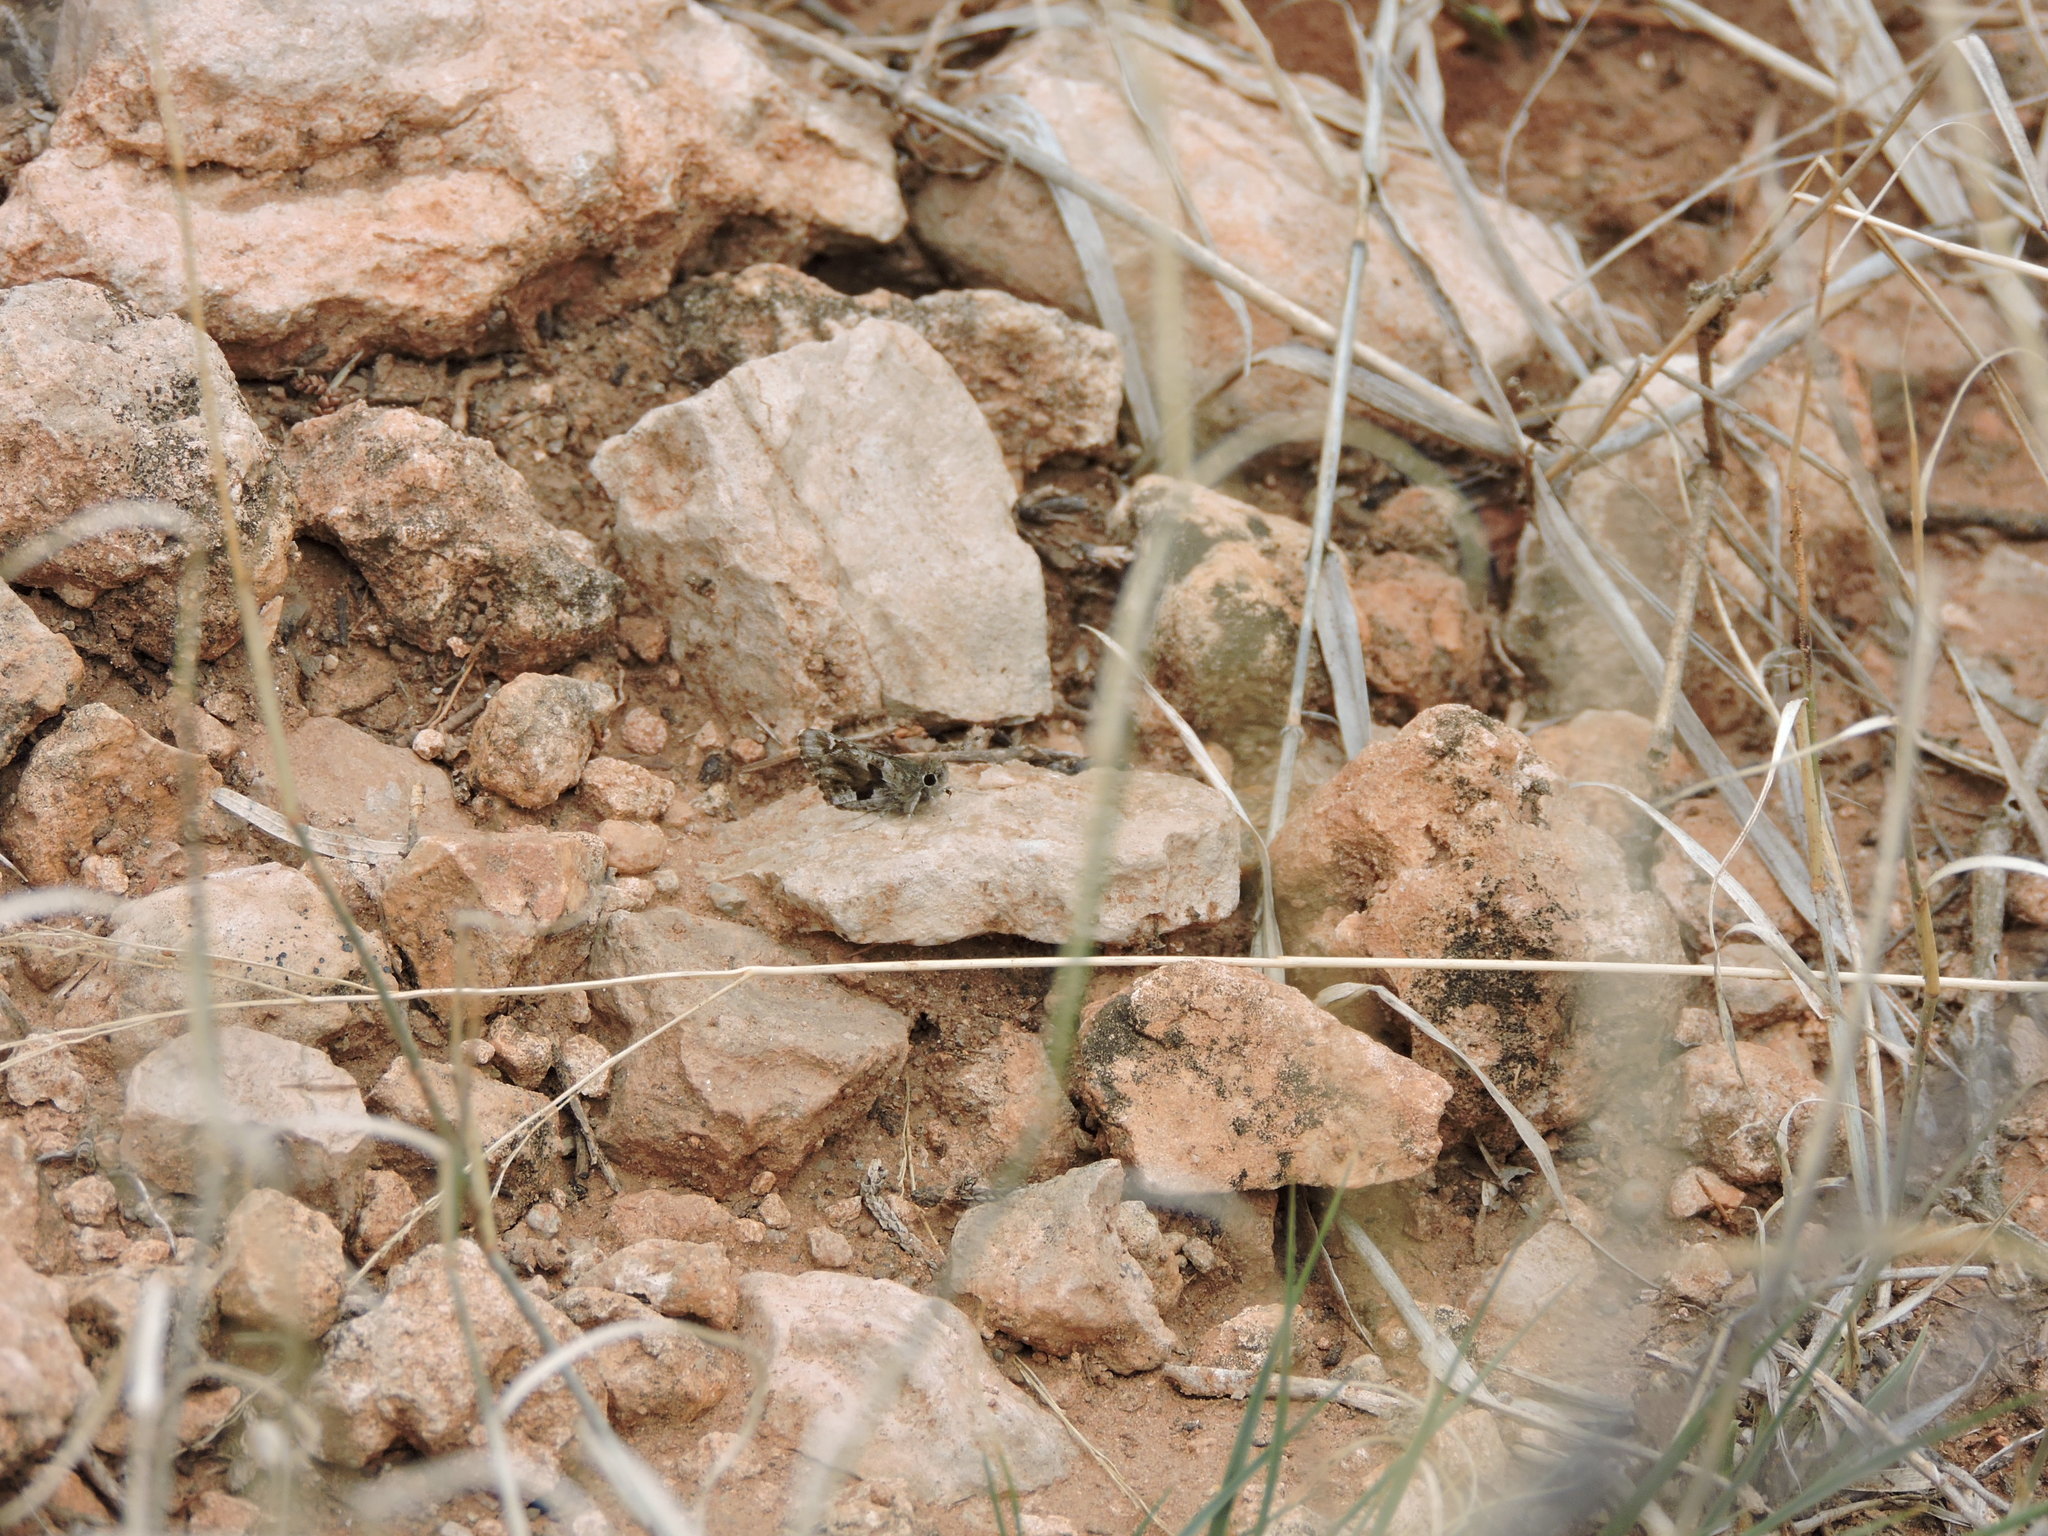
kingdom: Animalia
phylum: Arthropoda
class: Insecta
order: Lepidoptera
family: Hesperiidae
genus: Mastor
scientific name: Mastor nysa
